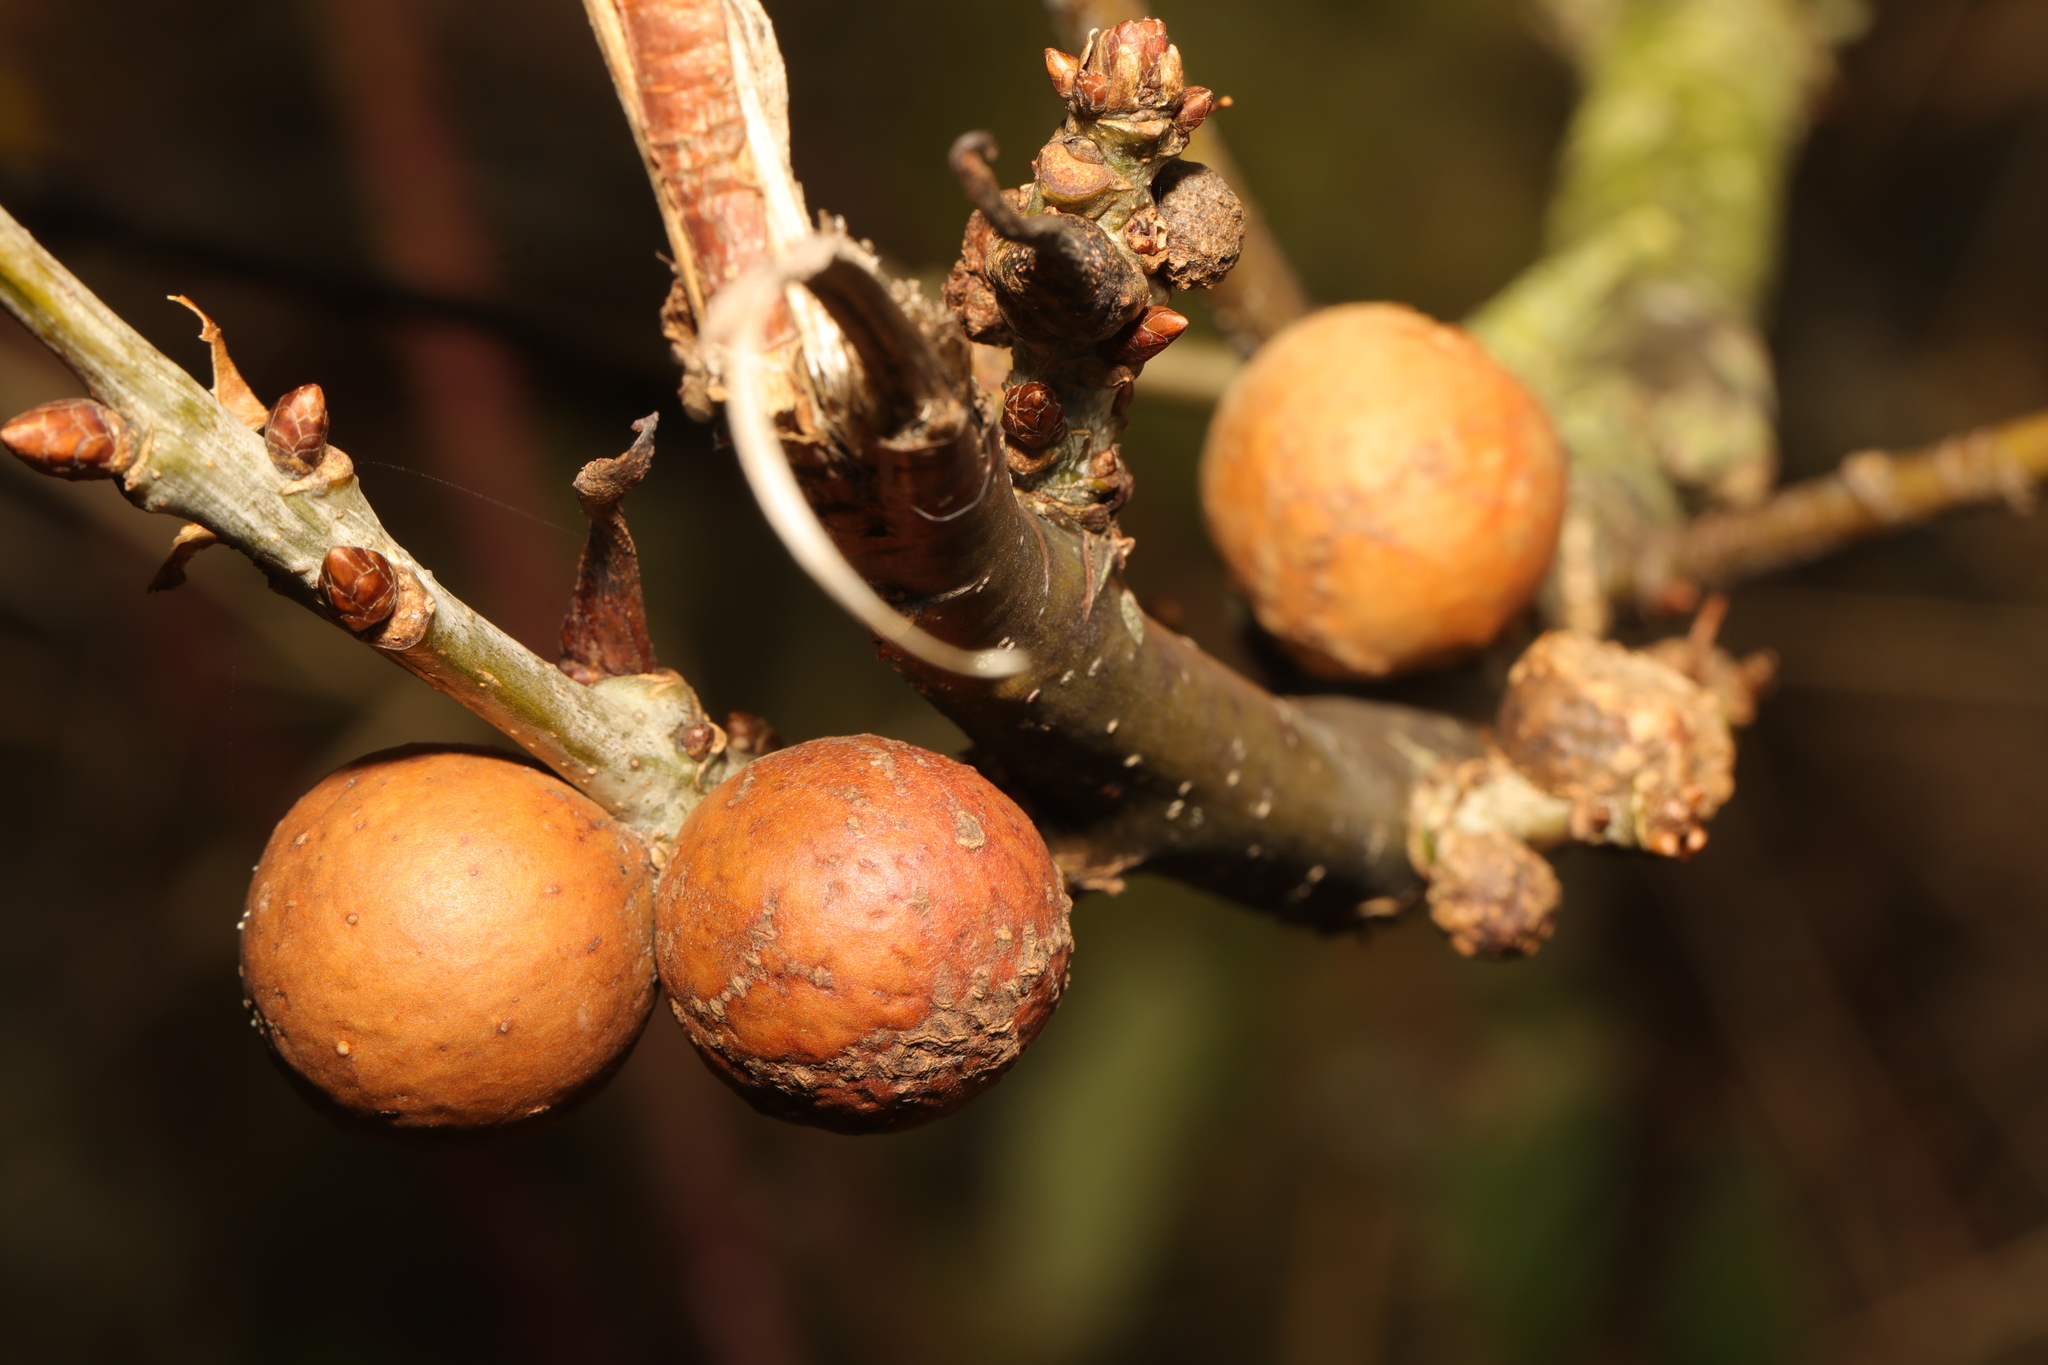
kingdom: Animalia
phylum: Arthropoda
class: Insecta
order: Hymenoptera
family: Cynipidae
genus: Andricus
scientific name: Andricus kollari
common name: Marble gall
